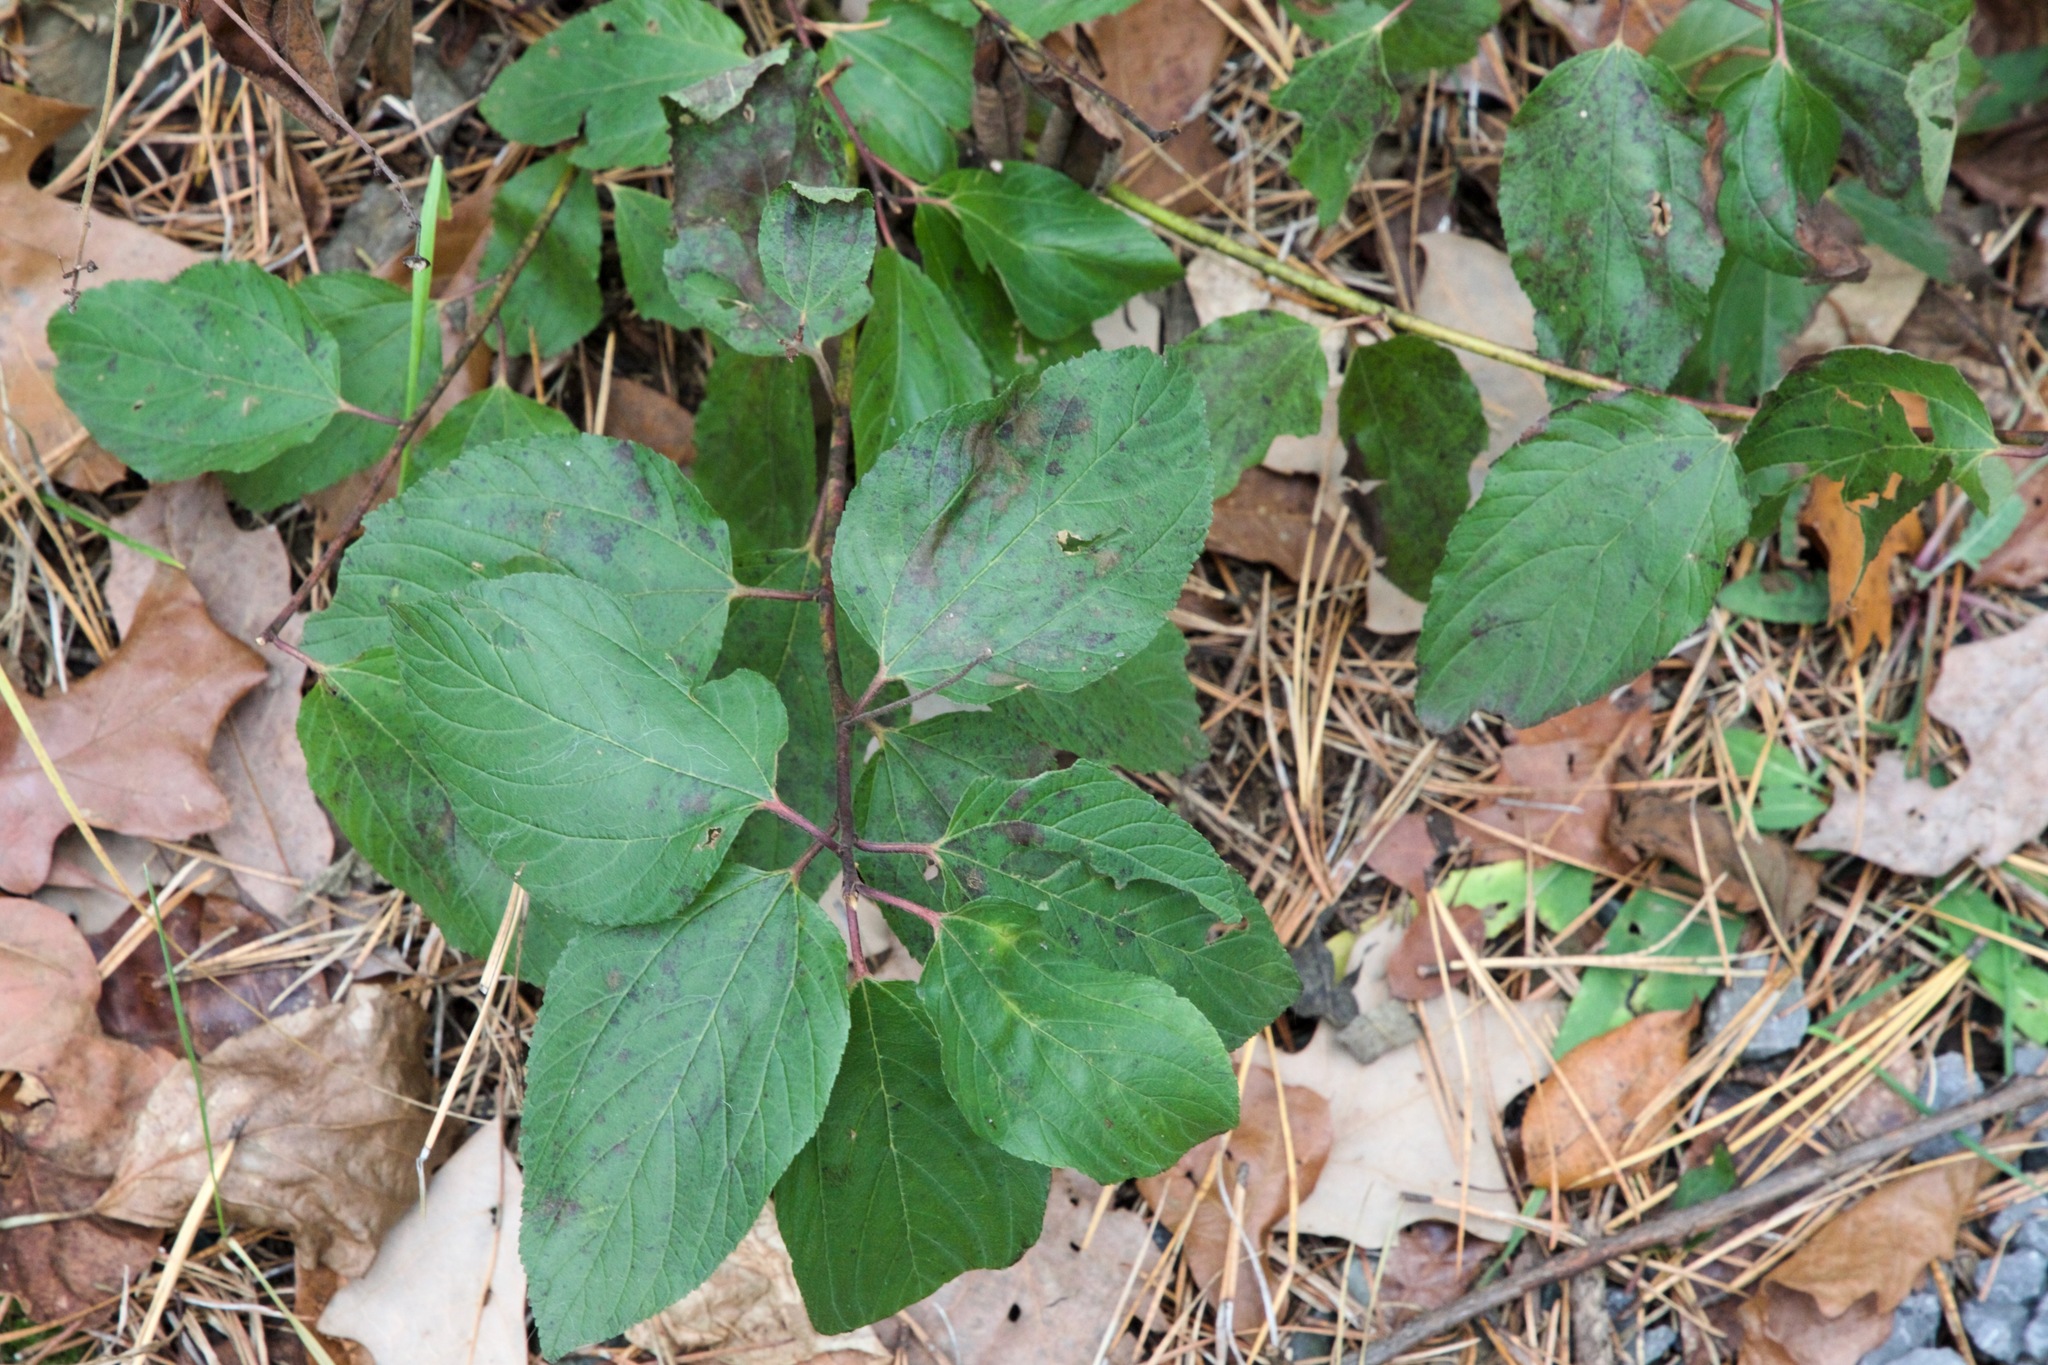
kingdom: Plantae
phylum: Tracheophyta
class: Magnoliopsida
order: Rosales
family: Rhamnaceae
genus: Rhamnus
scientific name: Rhamnus cathartica
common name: Common buckthorn
